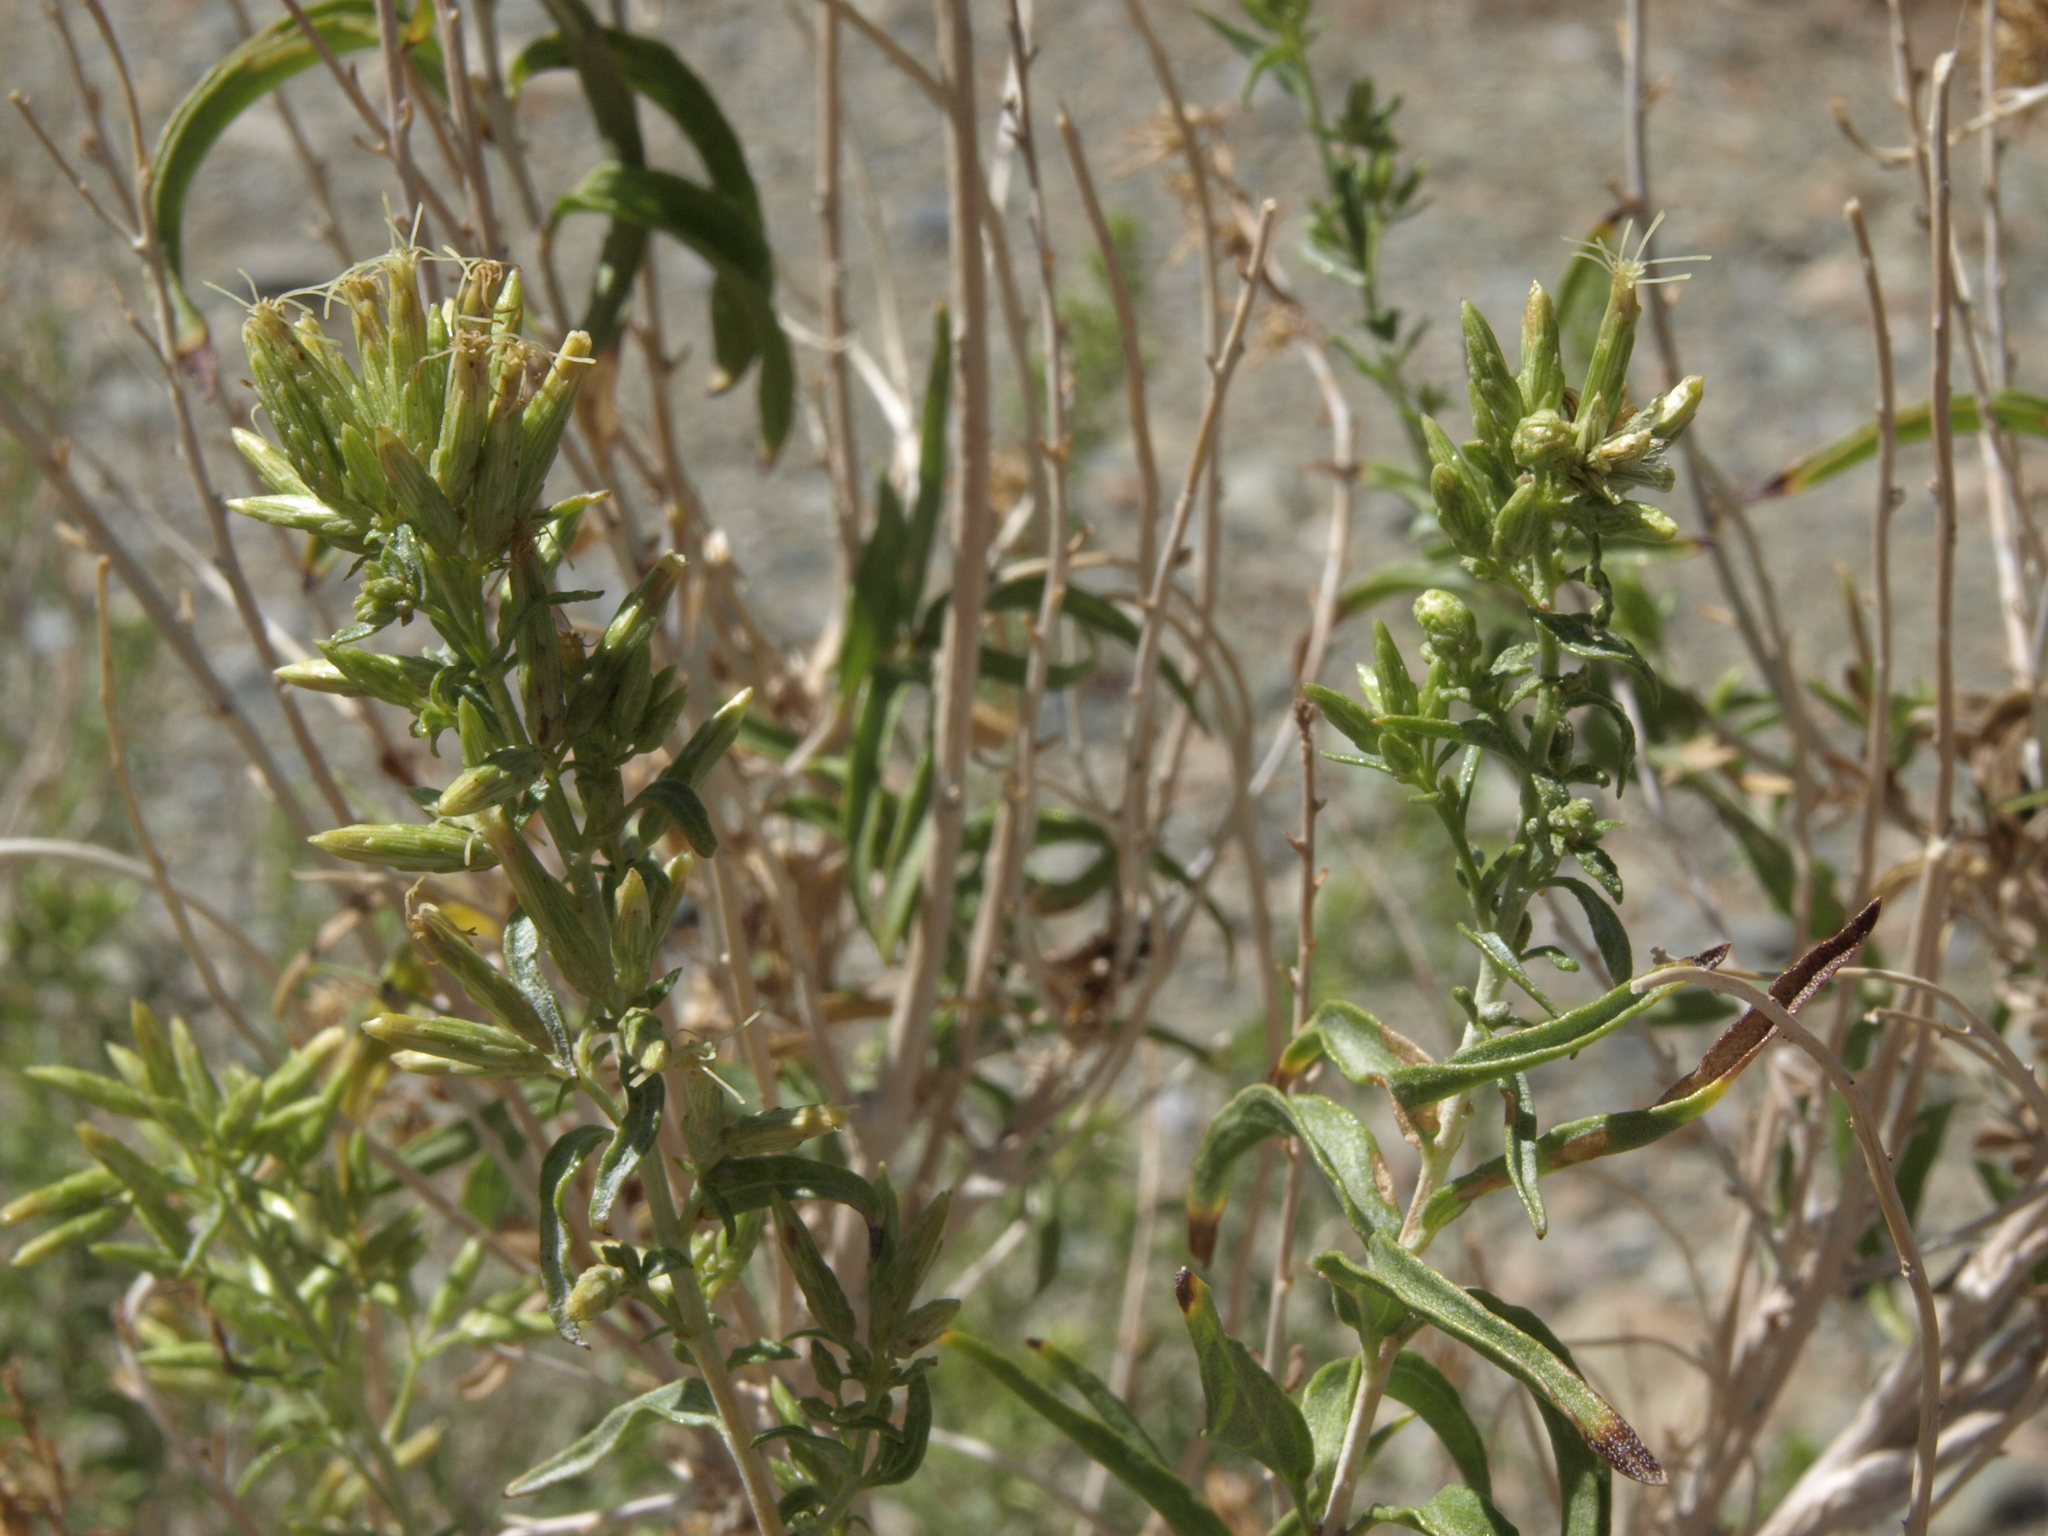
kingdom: Plantae
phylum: Tracheophyta
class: Magnoliopsida
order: Asterales
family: Asteraceae
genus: Brickellia
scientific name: Brickellia longifolia
